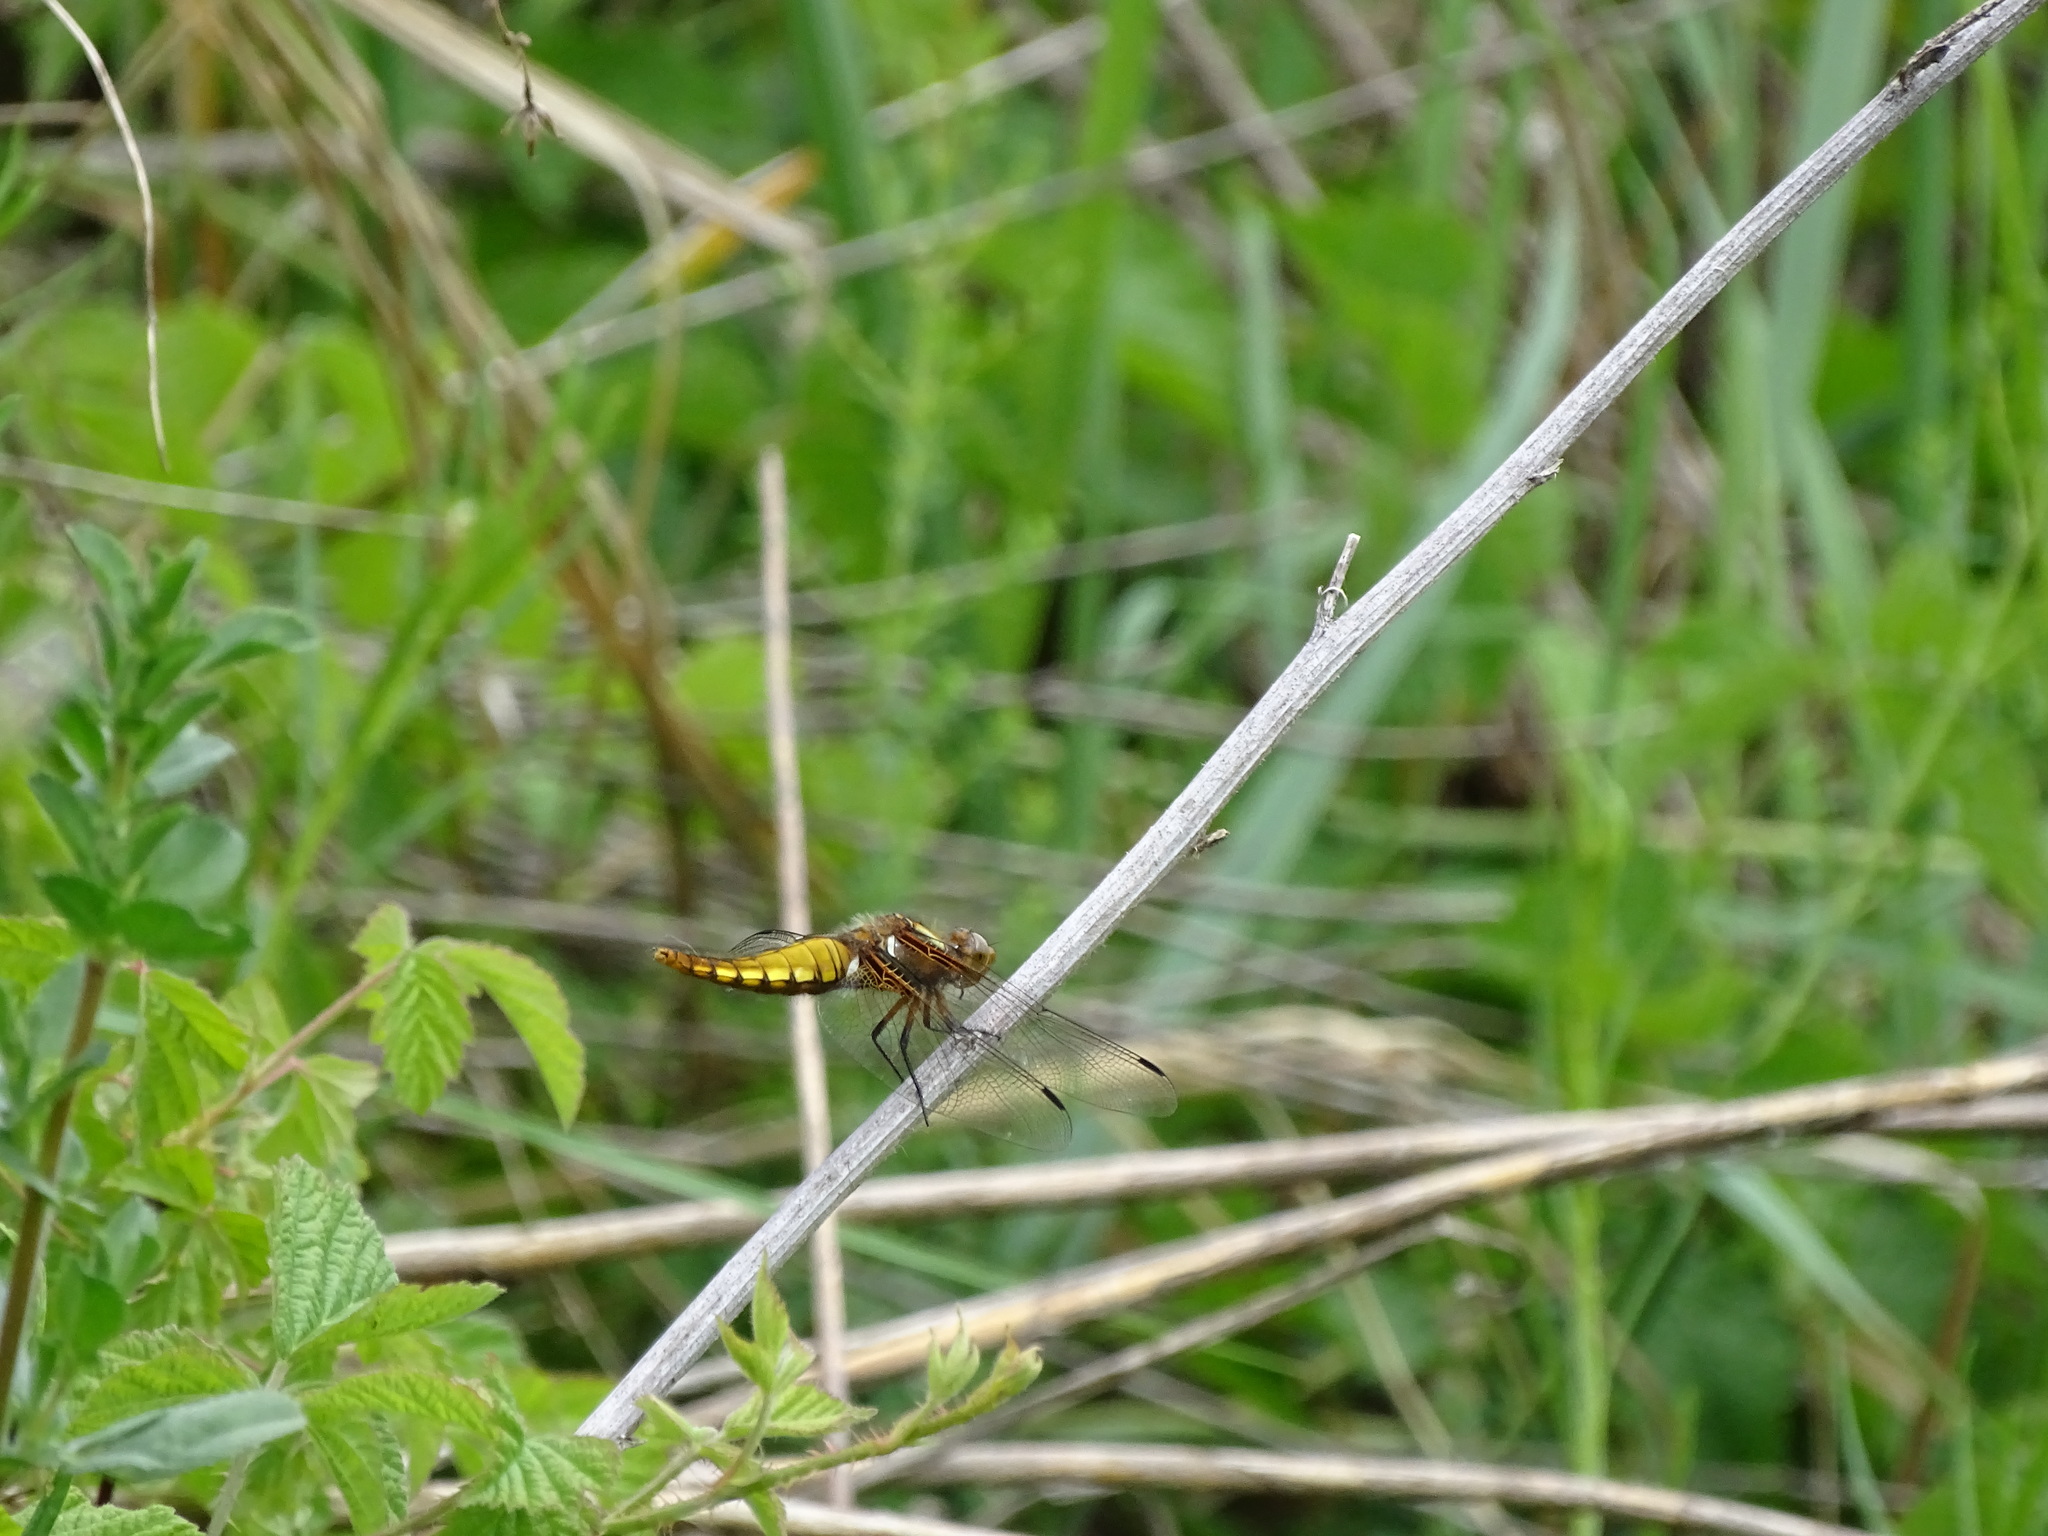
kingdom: Animalia
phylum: Arthropoda
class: Insecta
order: Odonata
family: Libellulidae
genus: Libellula
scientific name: Libellula depressa
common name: Broad-bodied chaser
